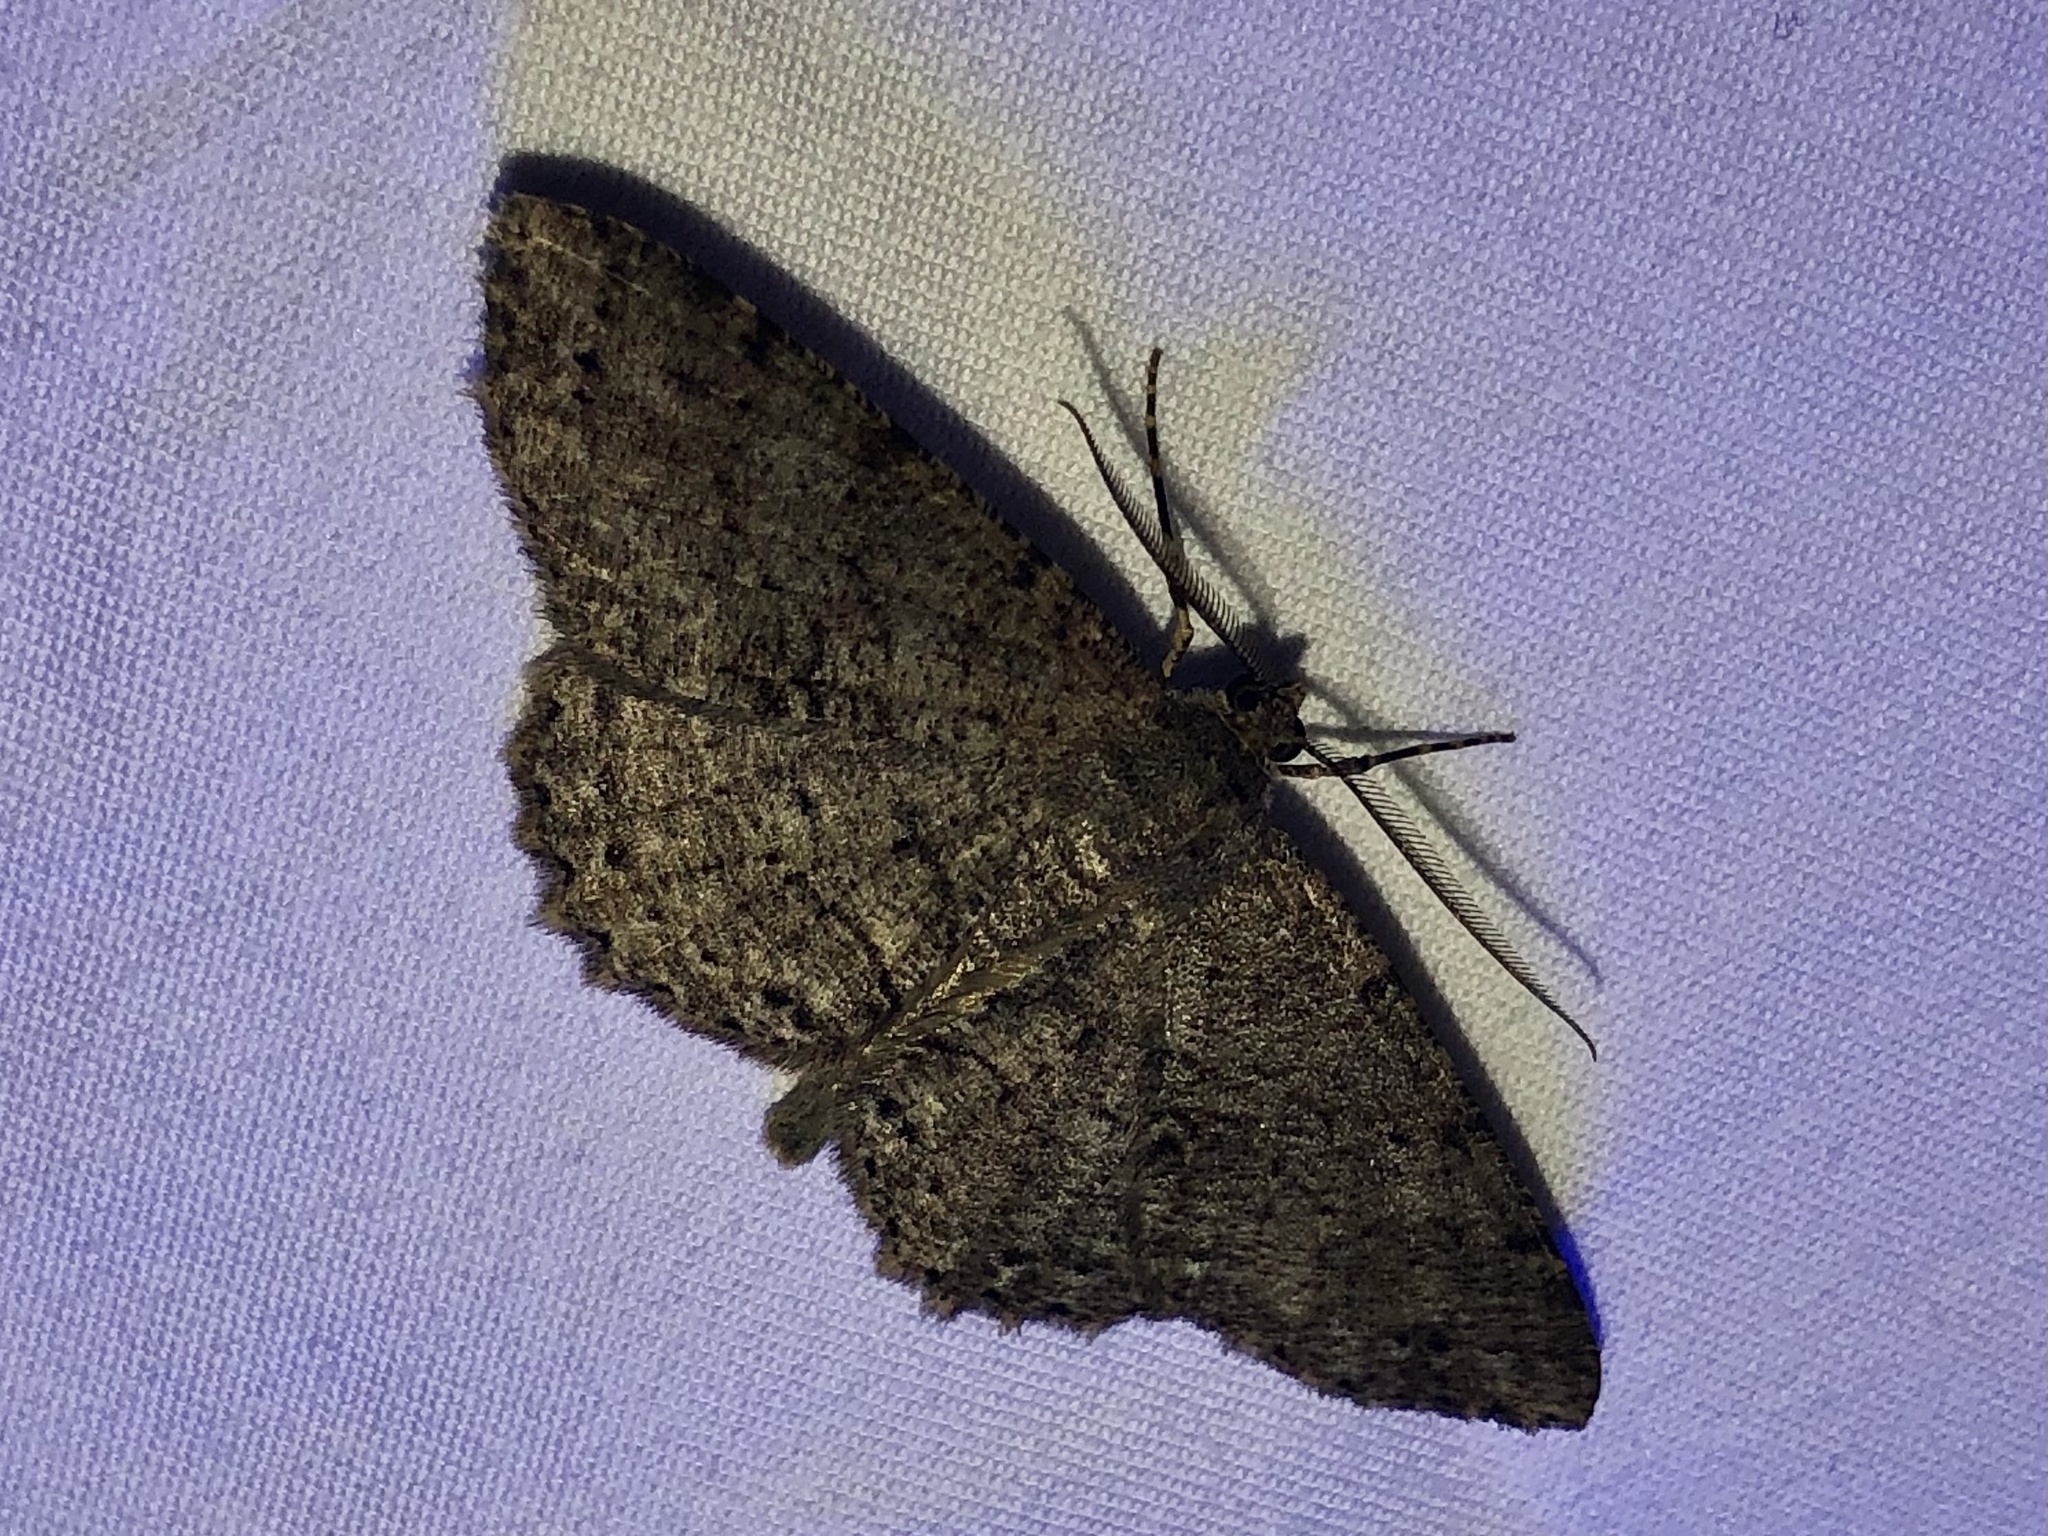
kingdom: Animalia
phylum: Arthropoda
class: Insecta
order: Lepidoptera
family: Geometridae
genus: Melanolophia
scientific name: Melanolophia canadaria
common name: Canadian melanolophia
